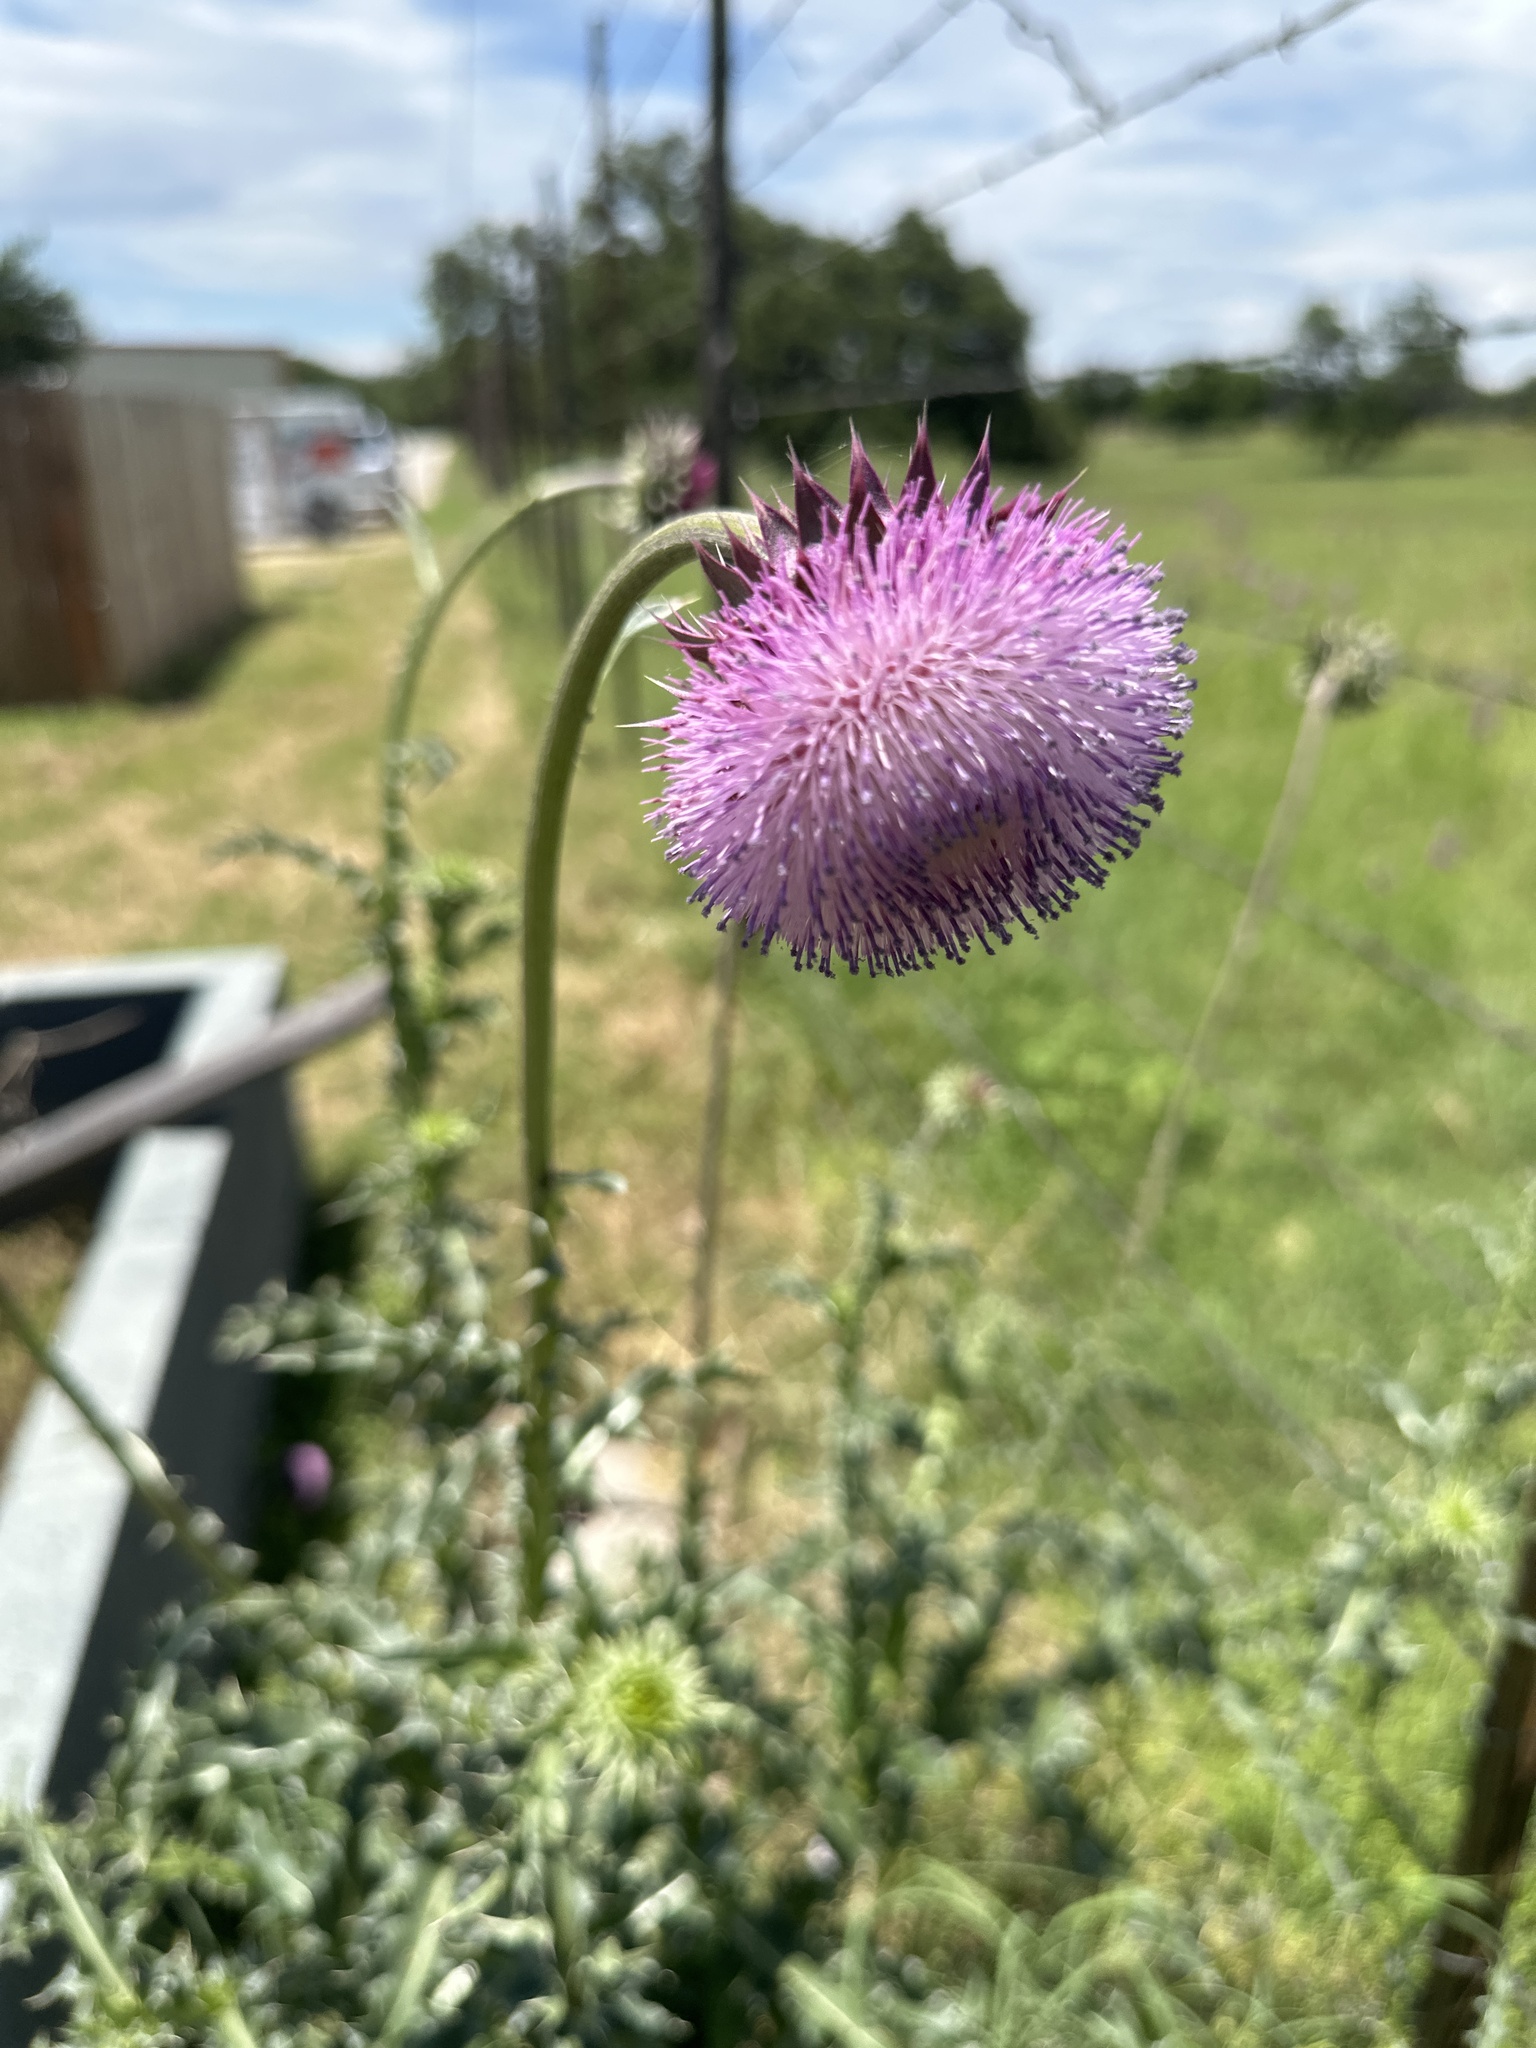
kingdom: Plantae
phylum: Tracheophyta
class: Magnoliopsida
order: Asterales
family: Asteraceae
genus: Carduus
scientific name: Carduus nutans
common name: Musk thistle
